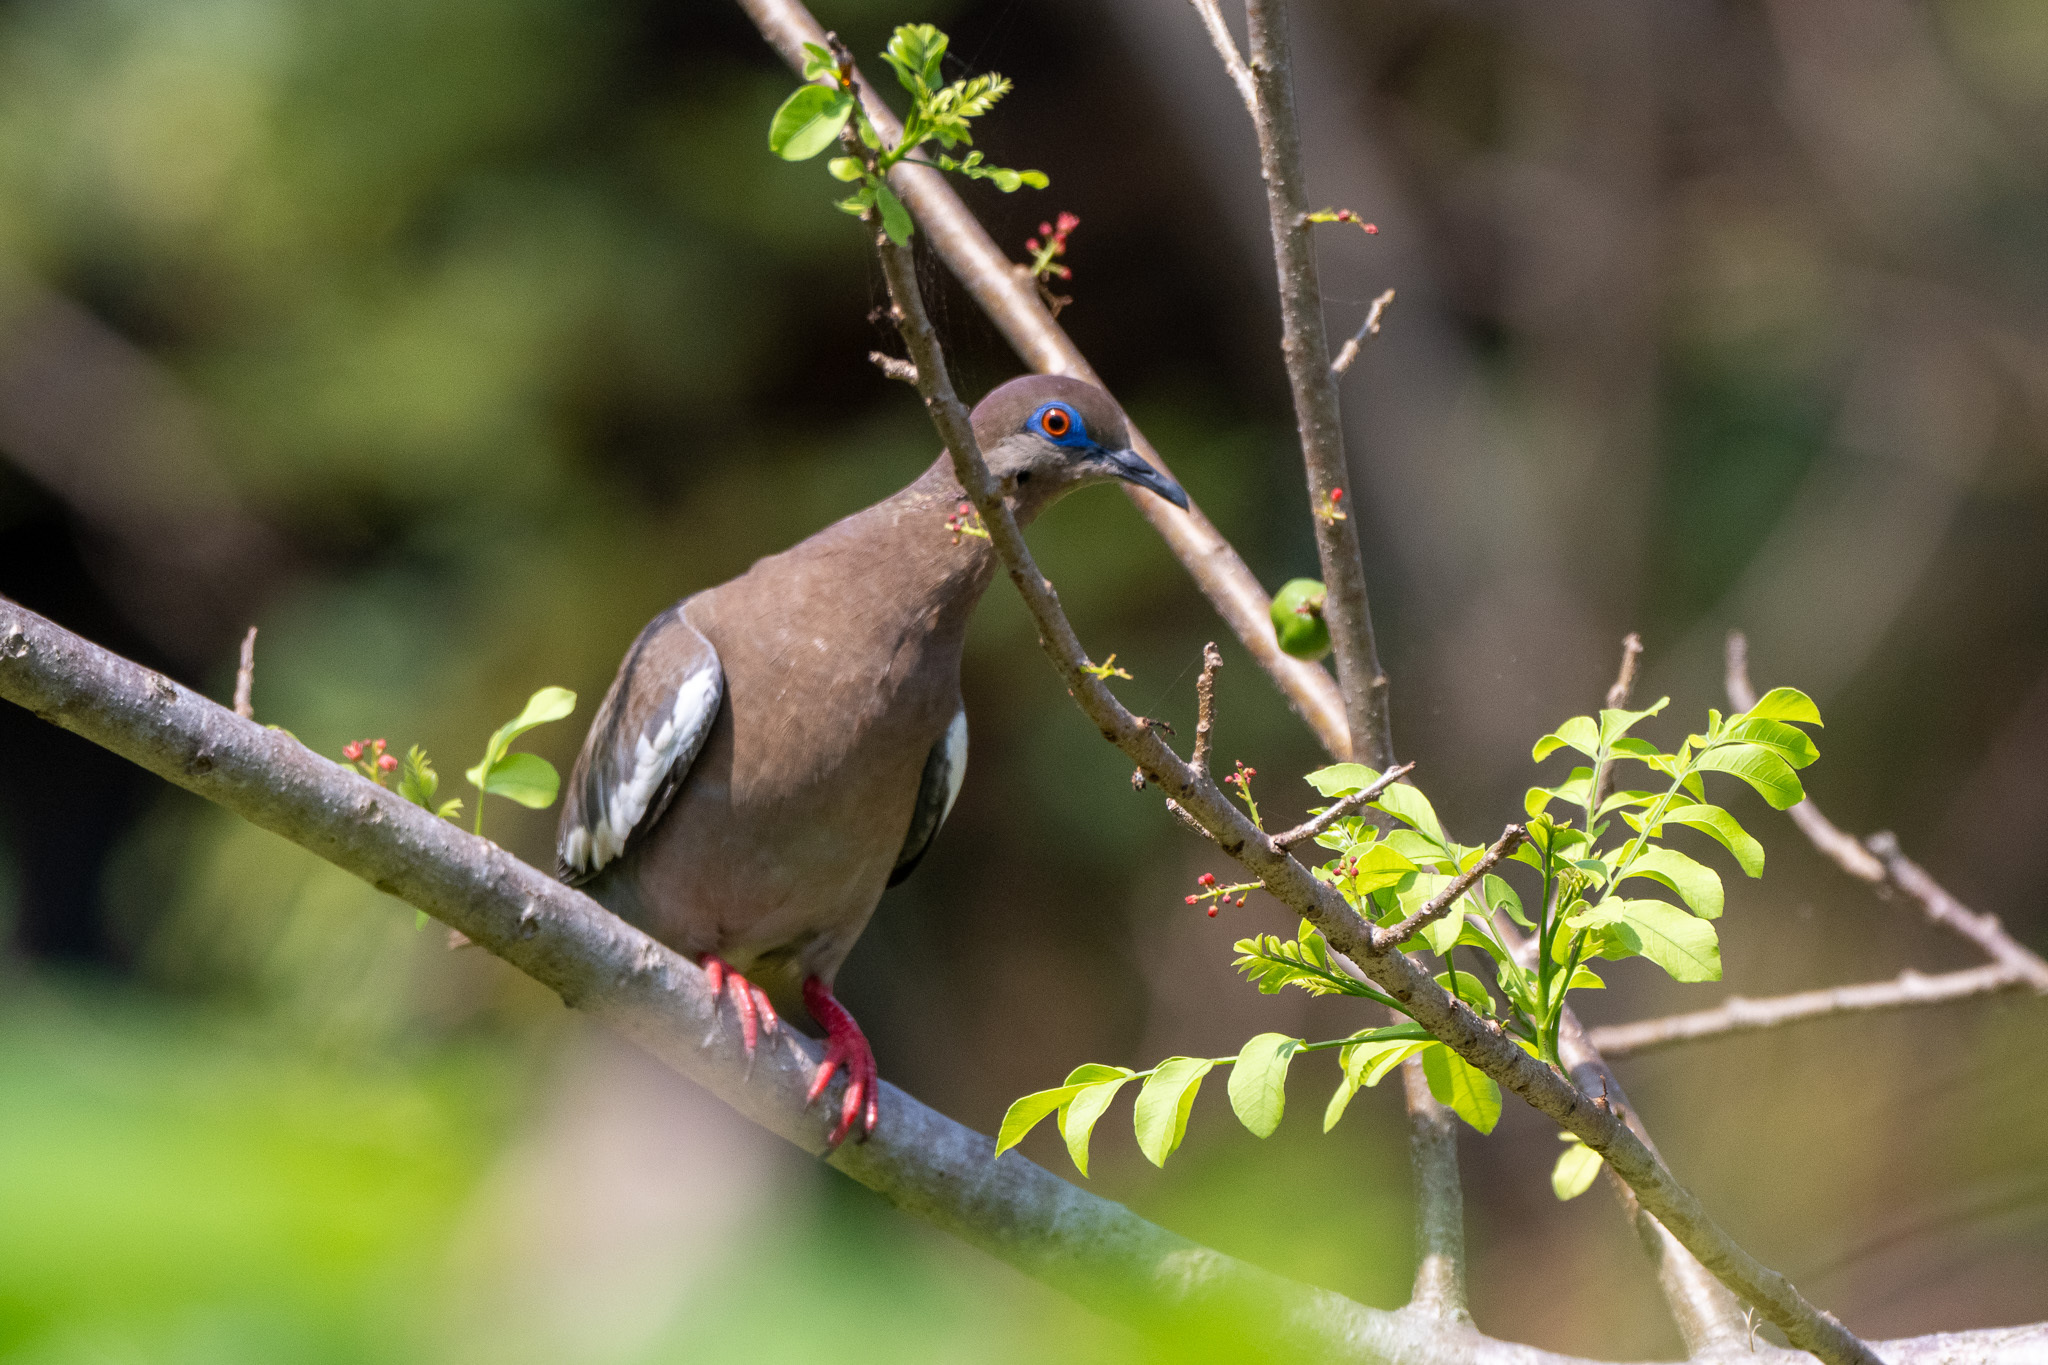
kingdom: Animalia
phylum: Chordata
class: Aves
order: Columbiformes
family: Columbidae
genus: Zenaida
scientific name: Zenaida asiatica
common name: White-winged dove
